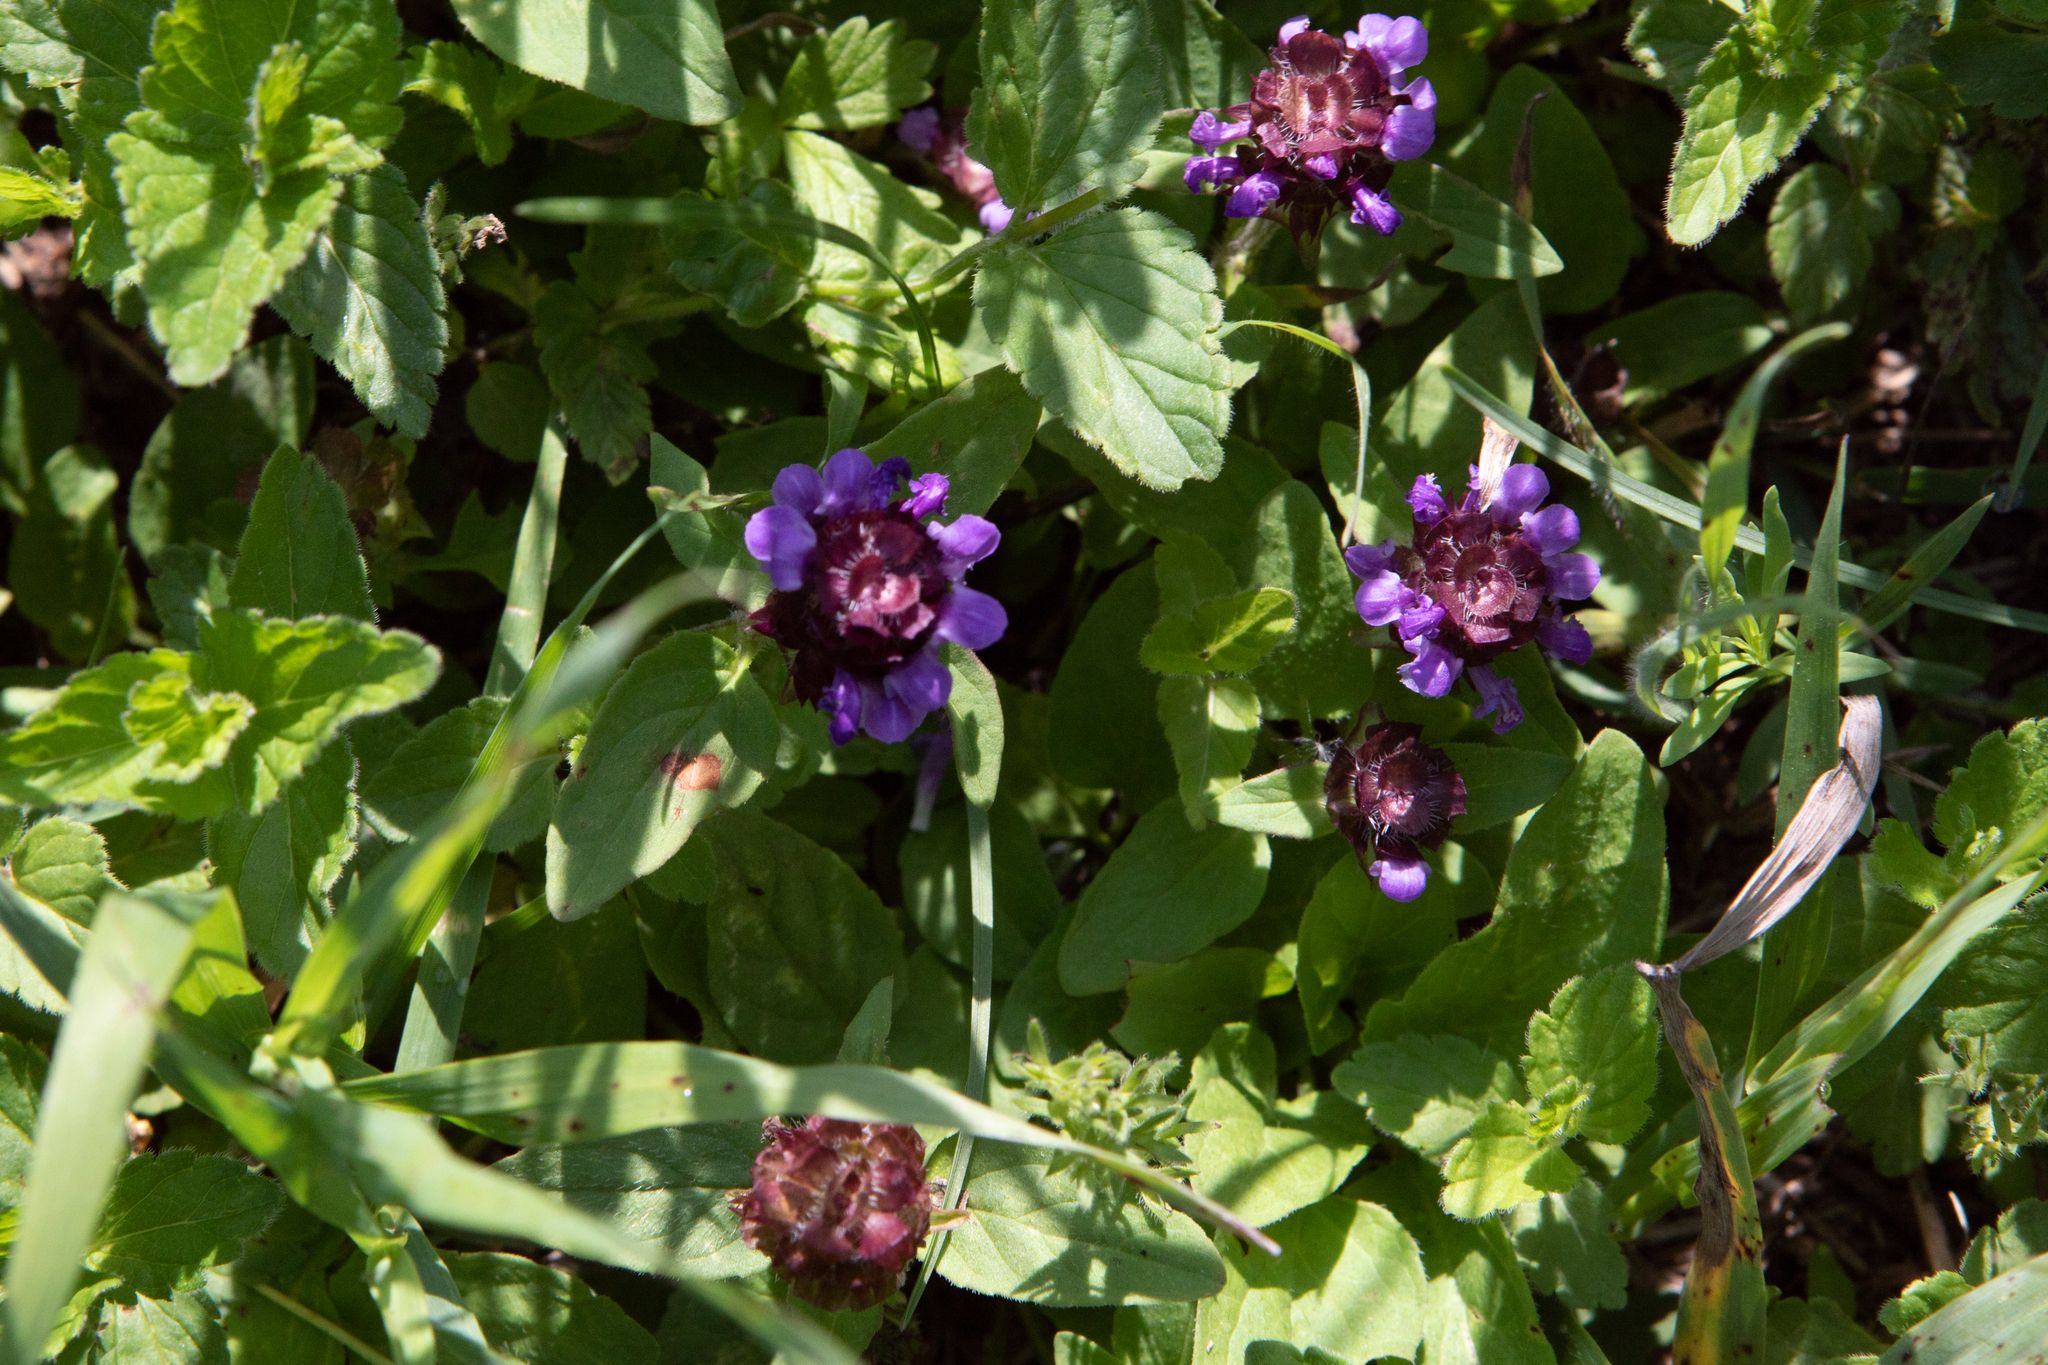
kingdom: Plantae
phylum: Tracheophyta
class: Magnoliopsida
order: Lamiales
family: Lamiaceae
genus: Prunella
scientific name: Prunella vulgaris
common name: Heal-all
